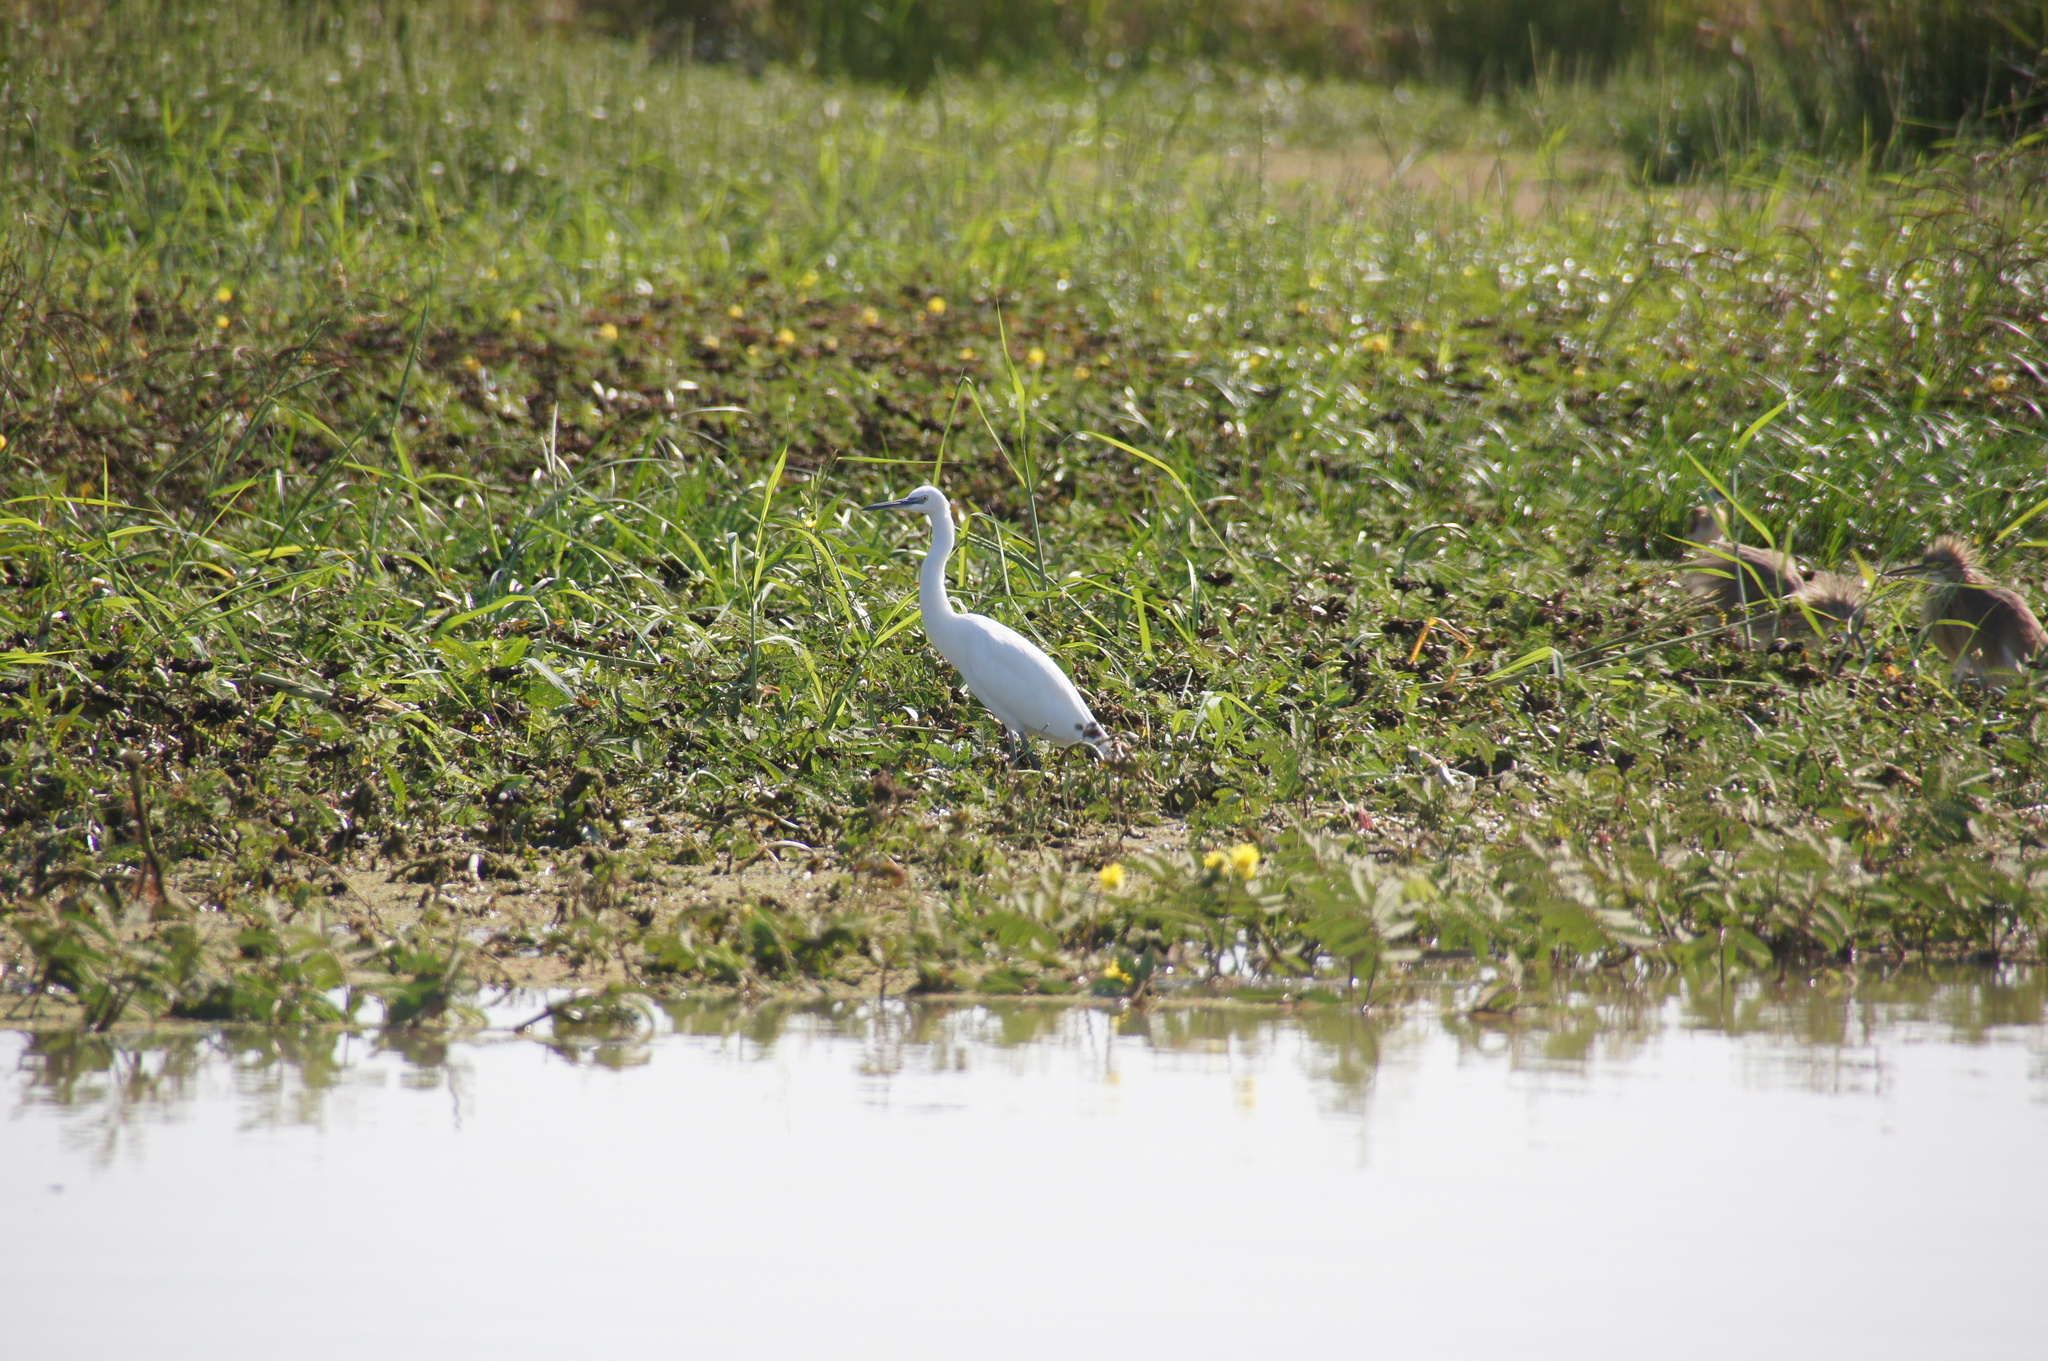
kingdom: Animalia
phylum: Chordata
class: Aves
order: Pelecaniformes
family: Ardeidae
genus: Egretta
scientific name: Egretta garzetta
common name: Little egret
